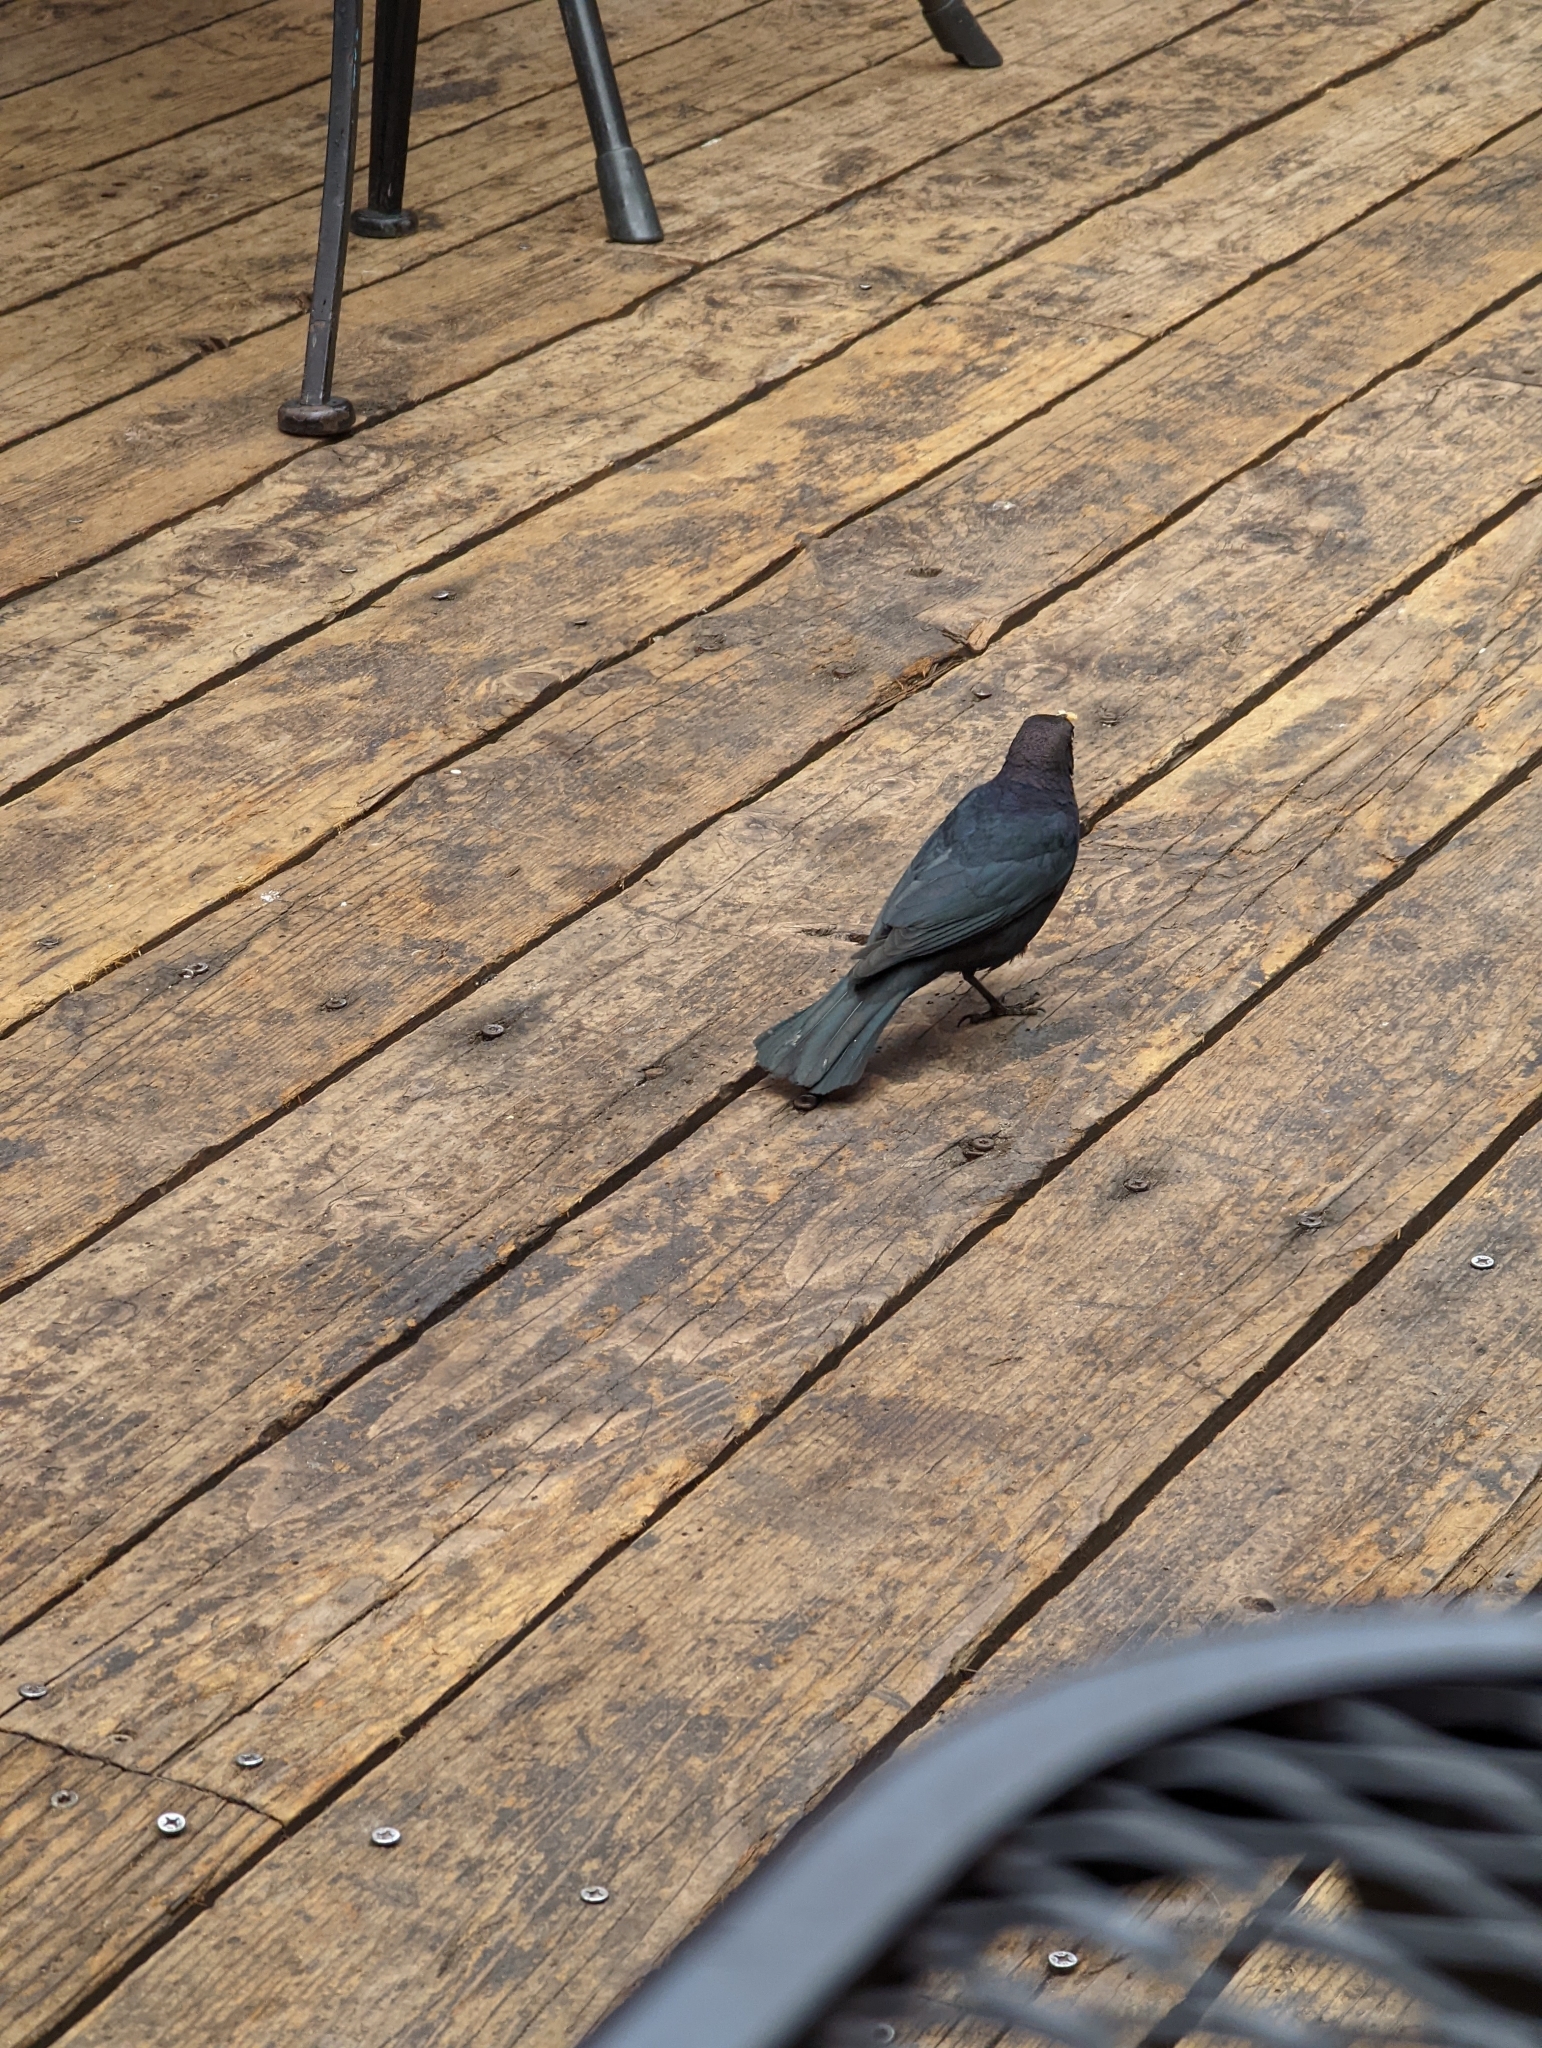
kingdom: Animalia
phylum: Chordata
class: Aves
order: Passeriformes
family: Icteridae
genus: Euphagus
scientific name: Euphagus cyanocephalus
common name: Brewer's blackbird
